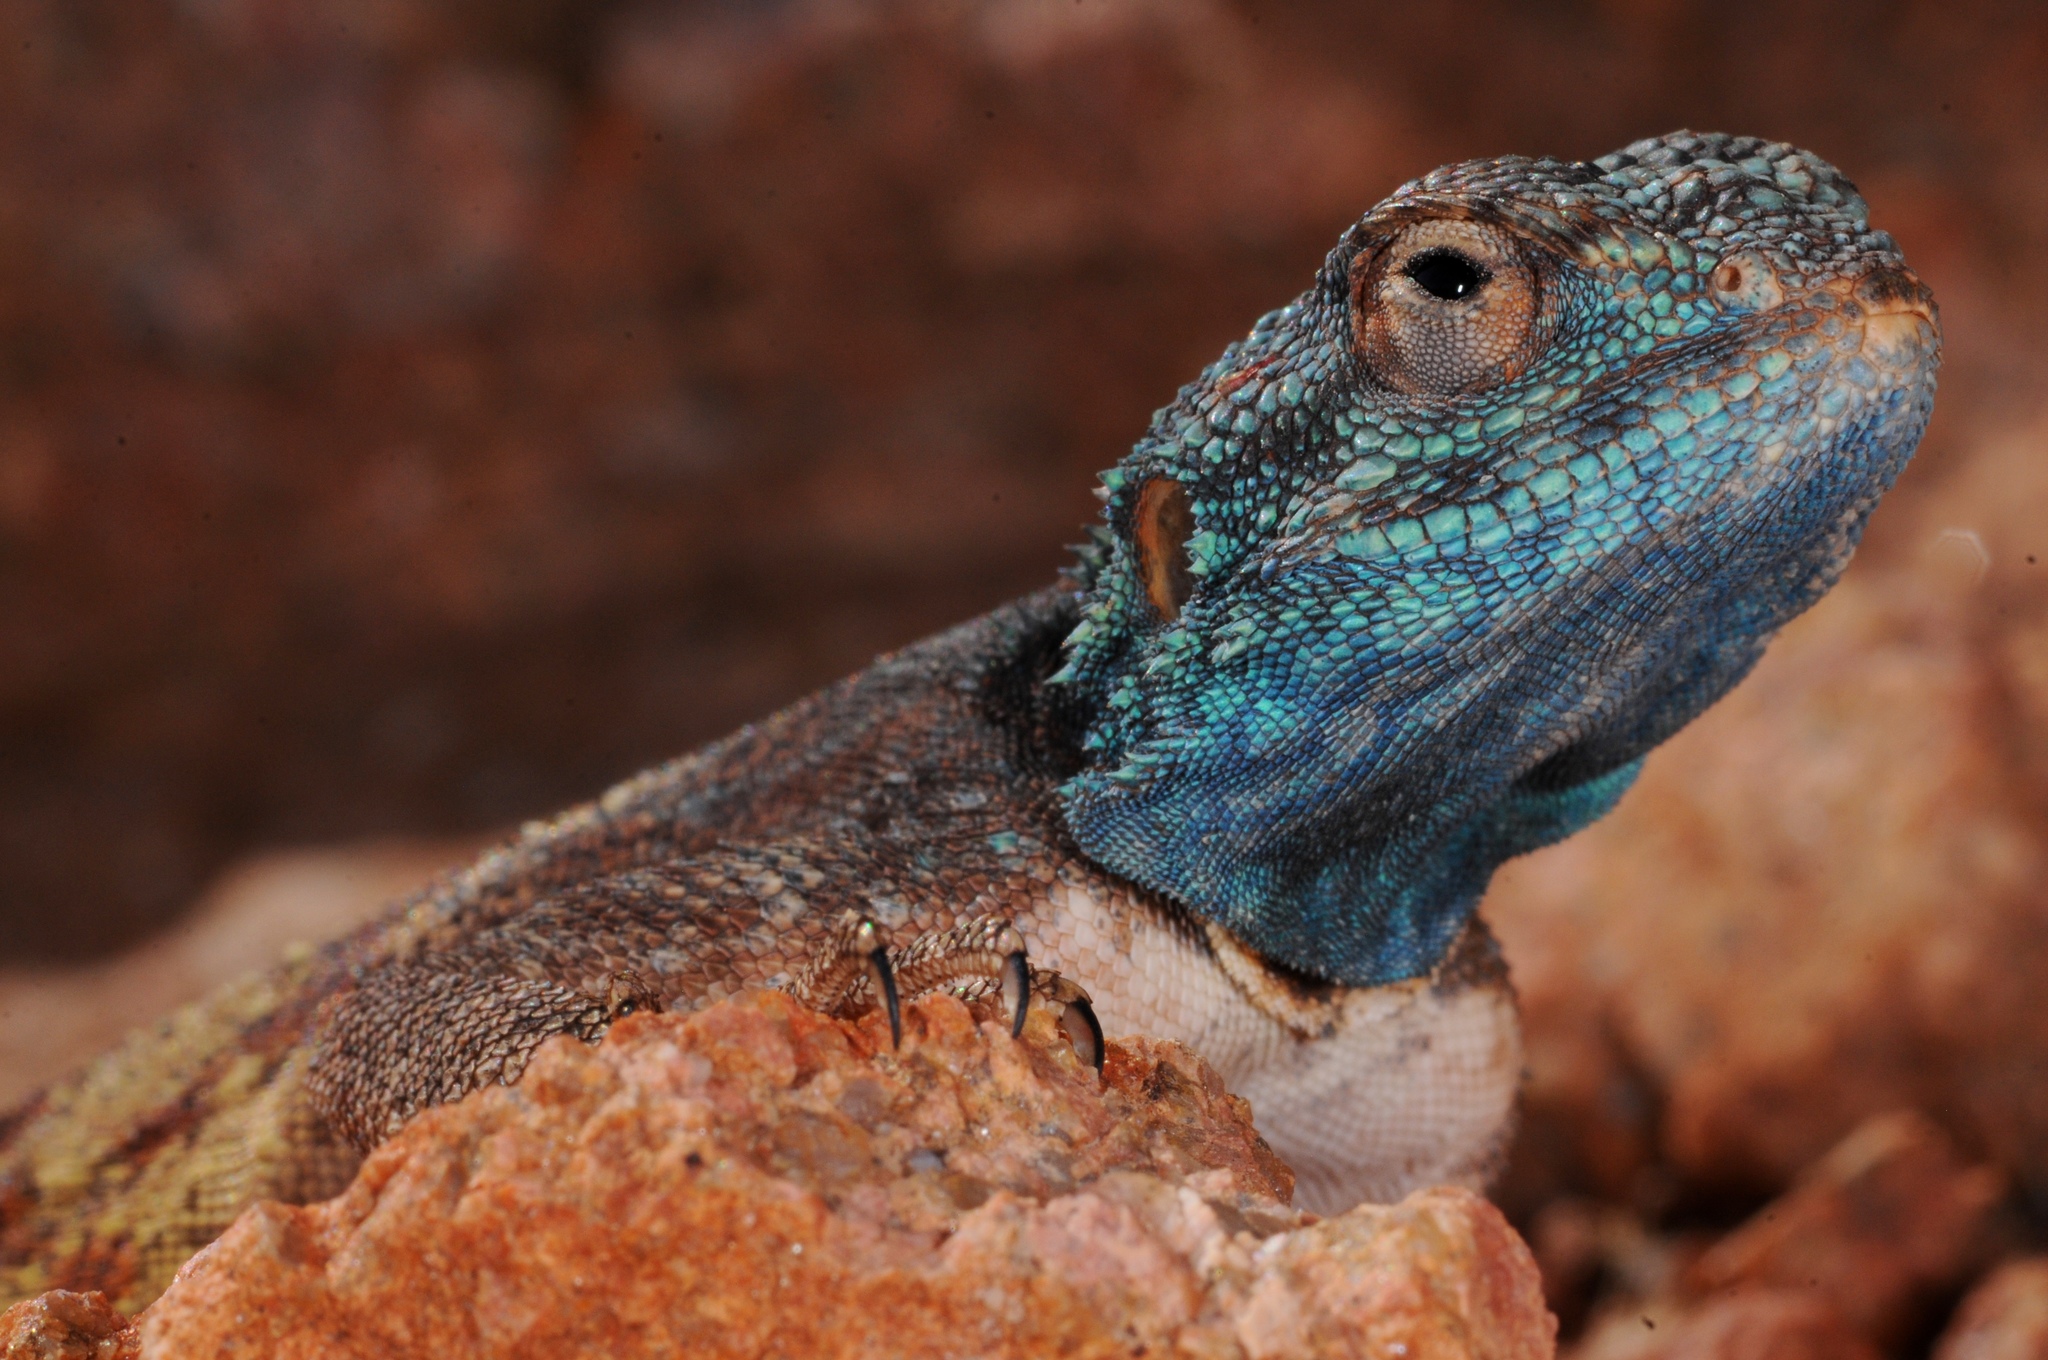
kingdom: Animalia
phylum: Chordata
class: Squamata
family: Agamidae
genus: Agama
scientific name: Agama atra
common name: Southern african rock agama
